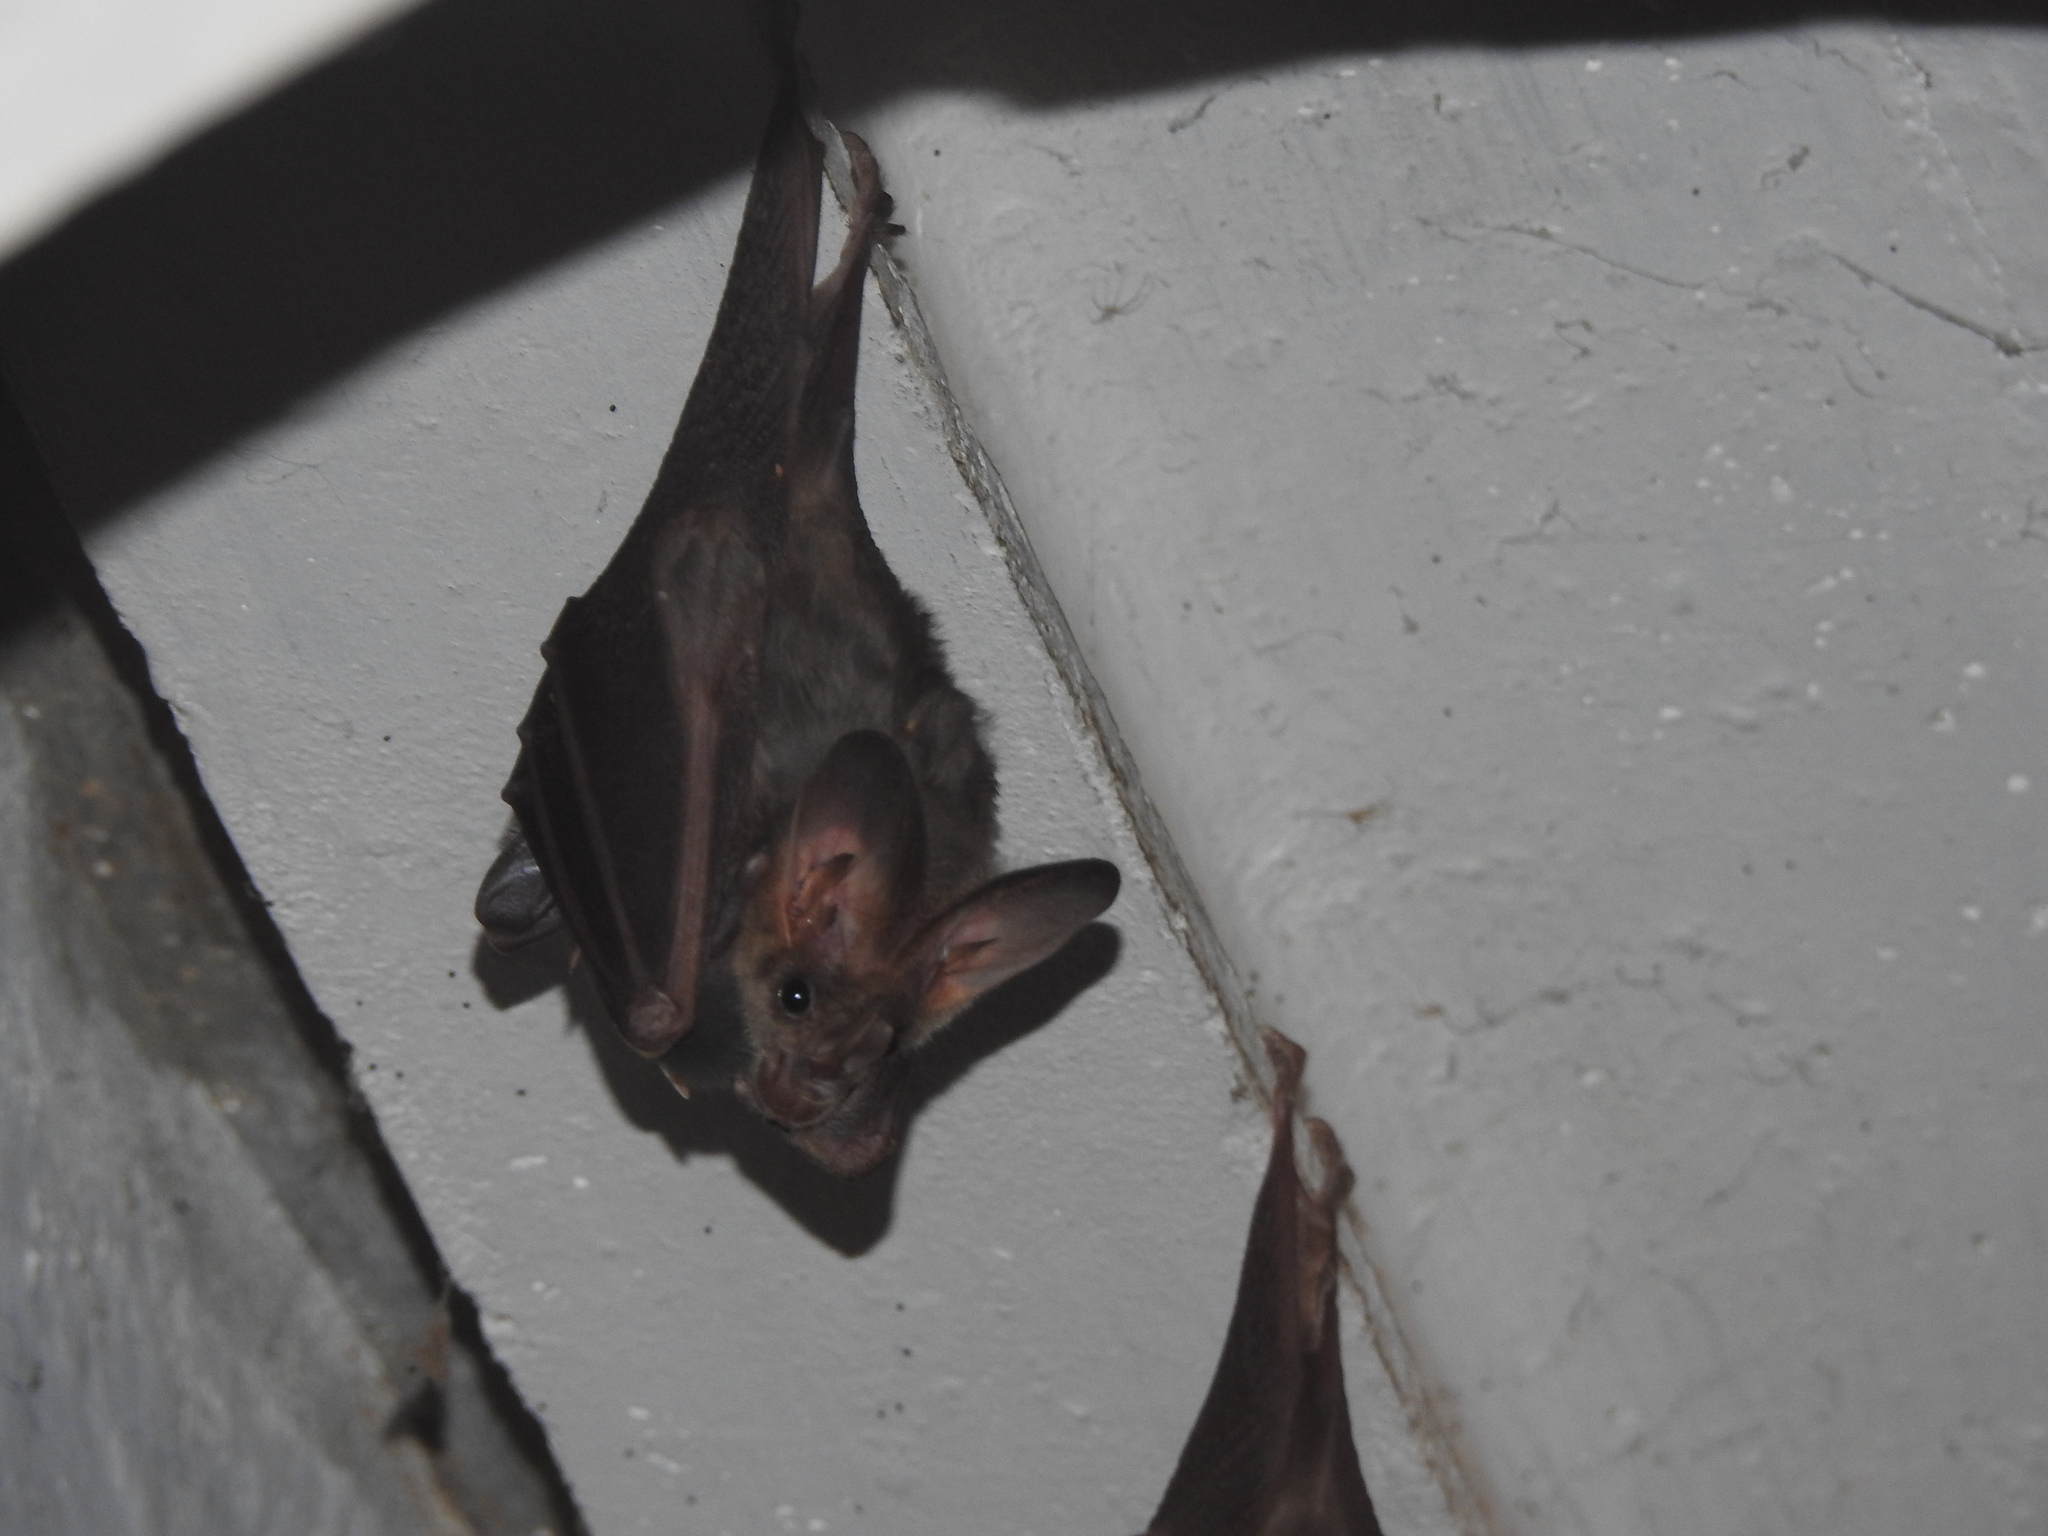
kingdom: Animalia
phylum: Chordata
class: Mammalia
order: Chiroptera
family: Megadermatidae
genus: Lyroderma
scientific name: Lyroderma lyra
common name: Greater false vampire bat
